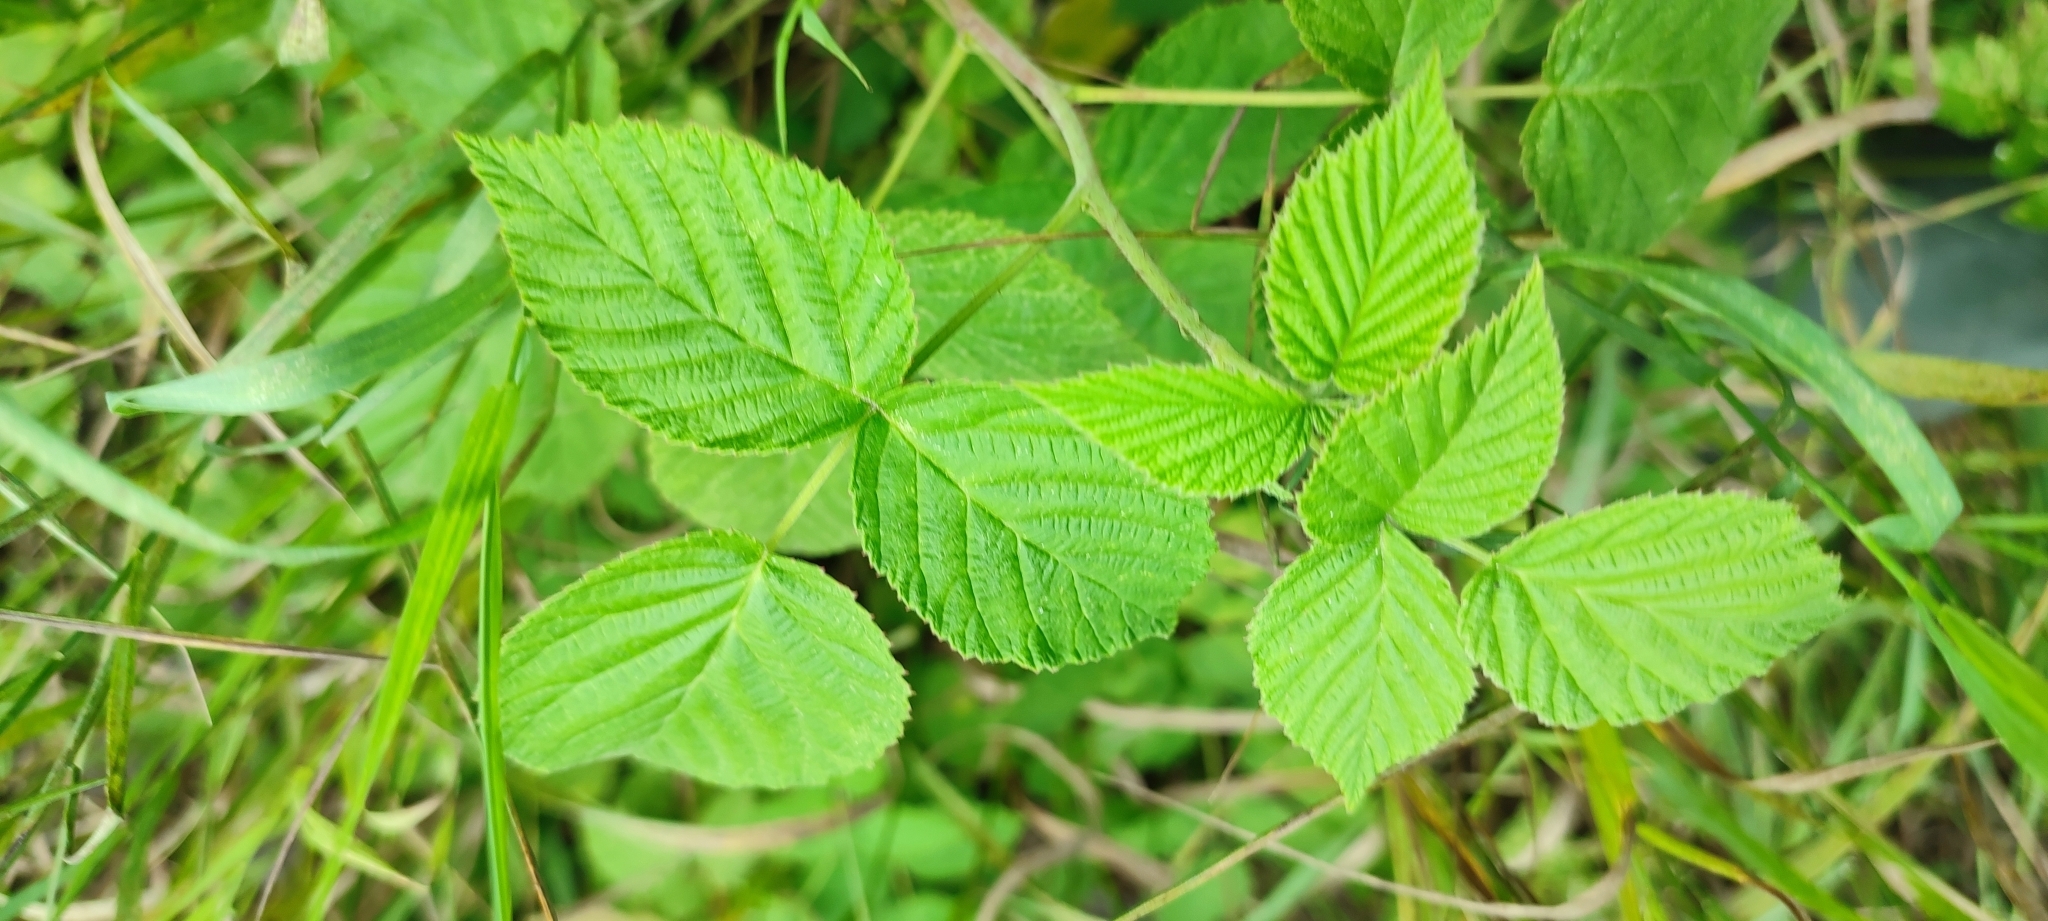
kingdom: Plantae
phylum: Tracheophyta
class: Magnoliopsida
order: Rosales
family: Rosaceae
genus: Rubus
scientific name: Rubus idaeus
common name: Raspberry
